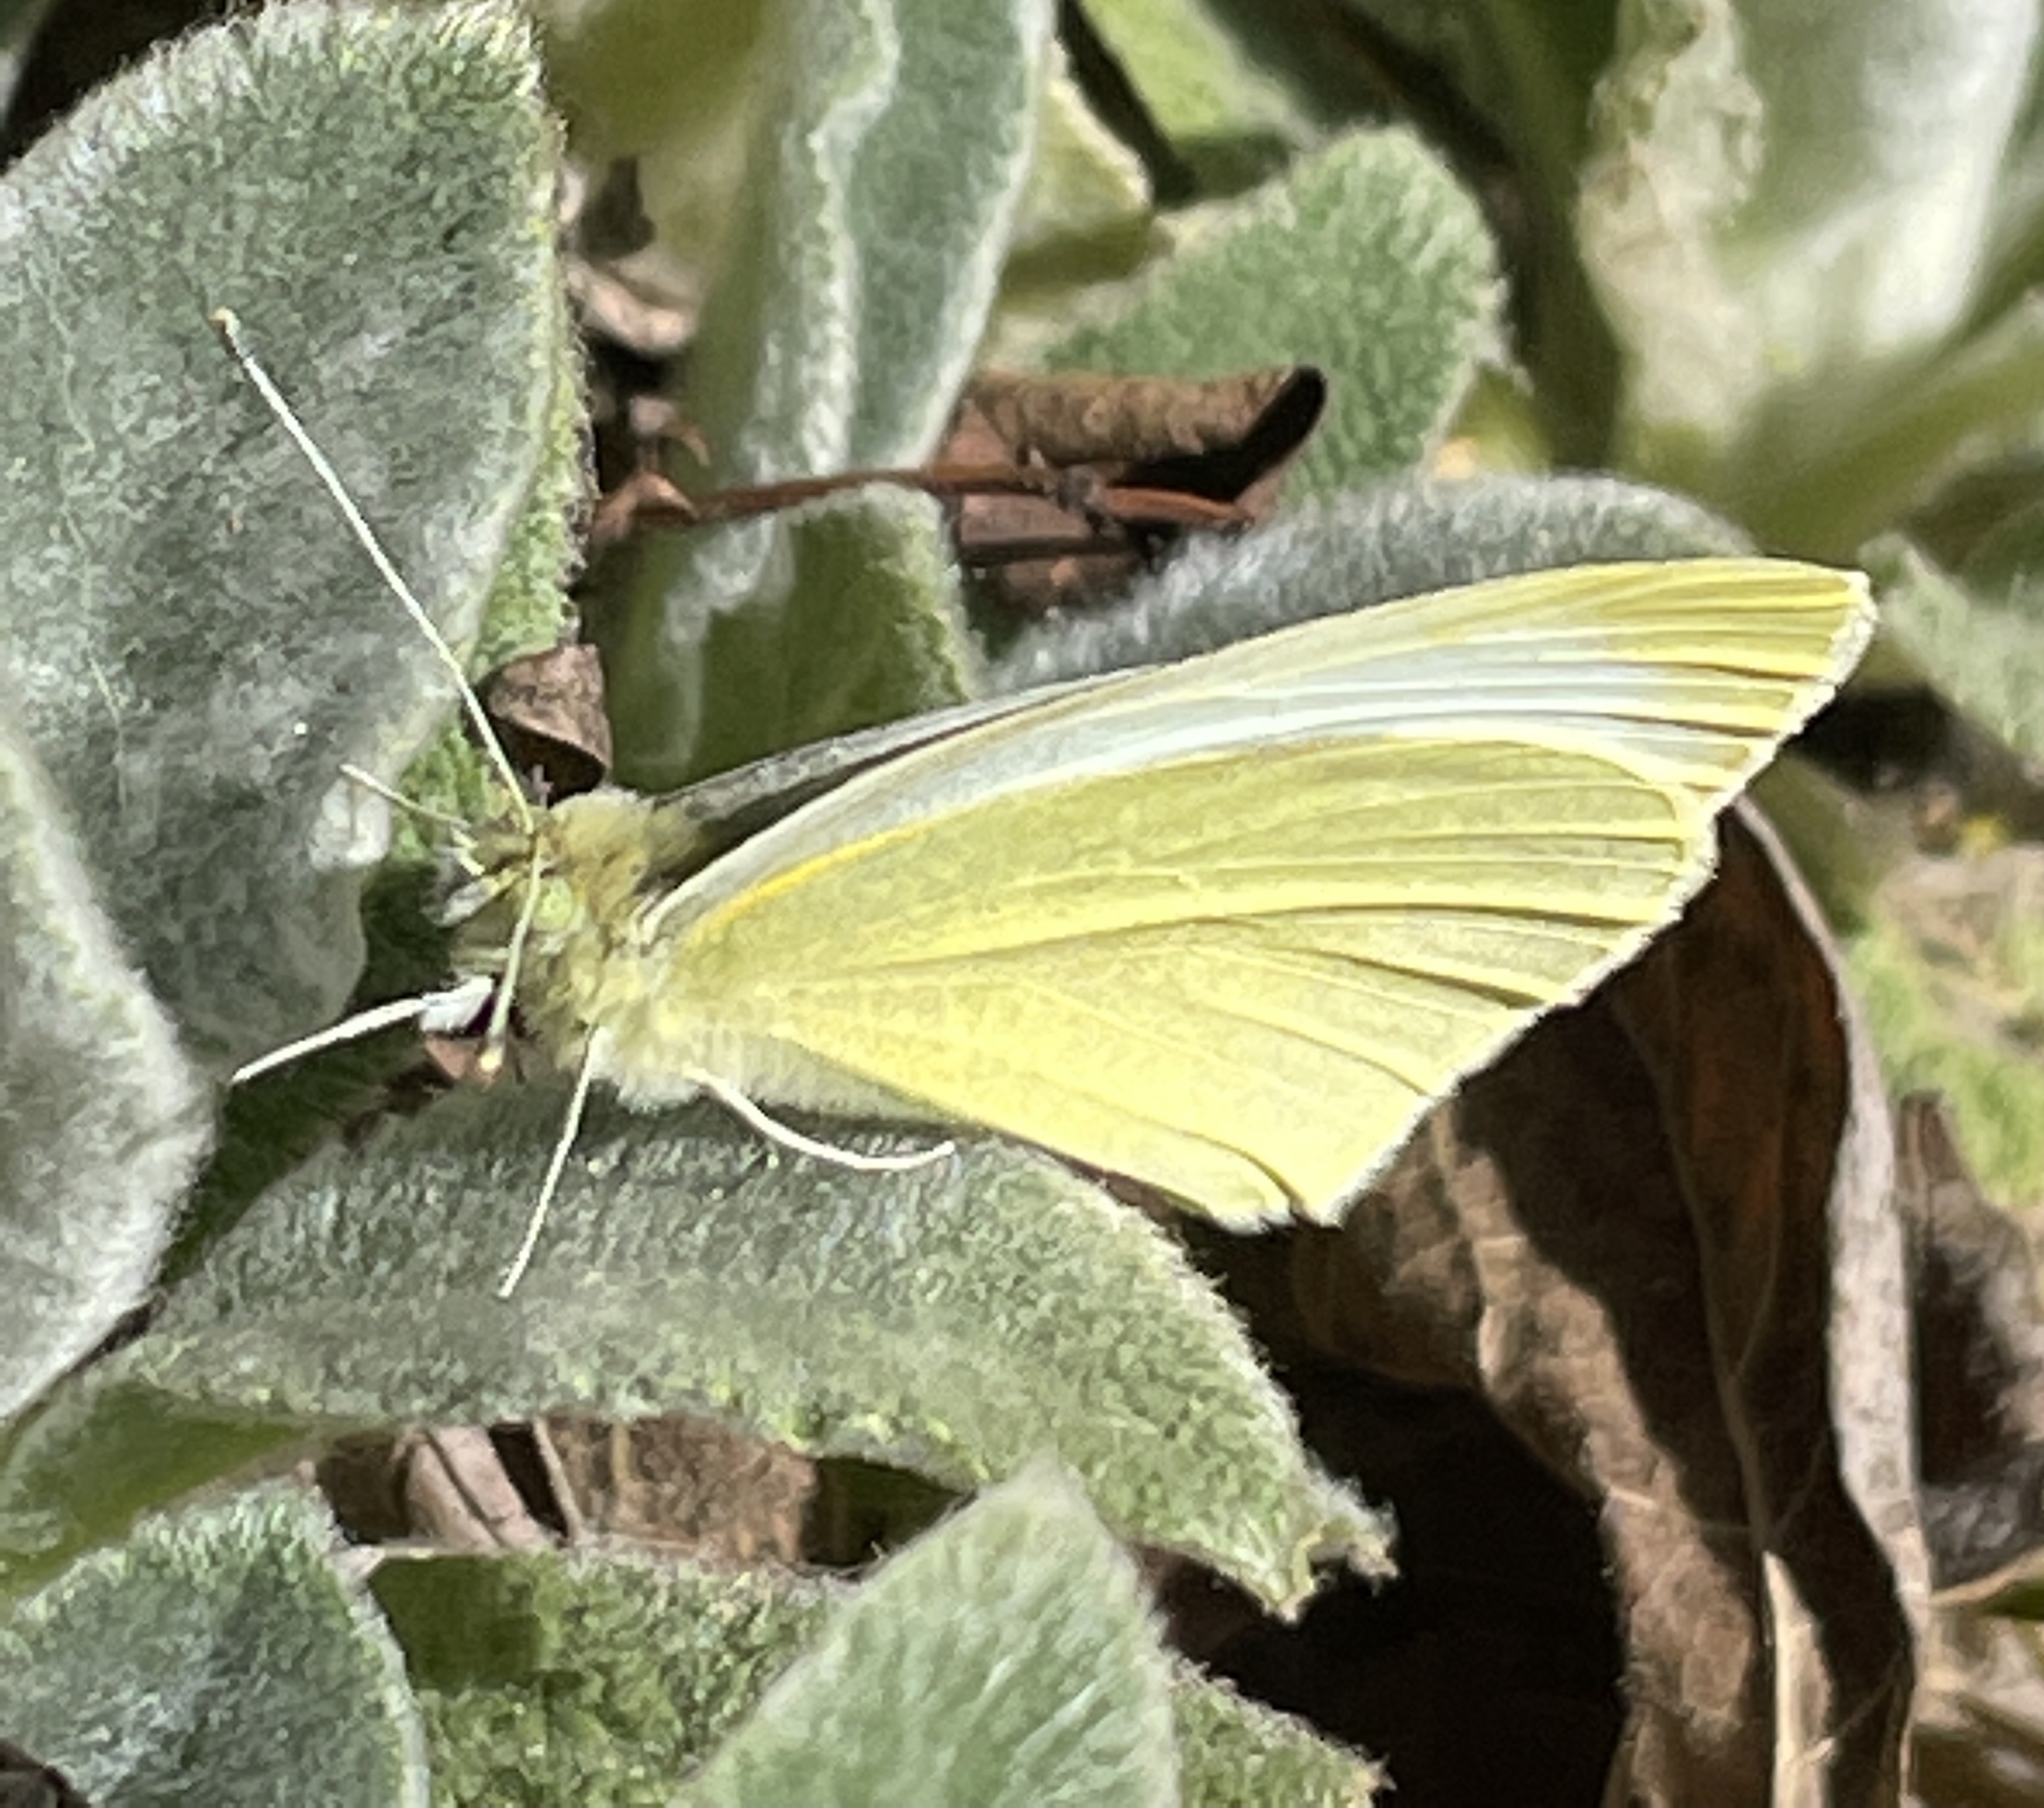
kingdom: Animalia
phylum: Arthropoda
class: Insecta
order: Lepidoptera
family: Pieridae
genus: Pieris
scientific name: Pieris rapae
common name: Small white
